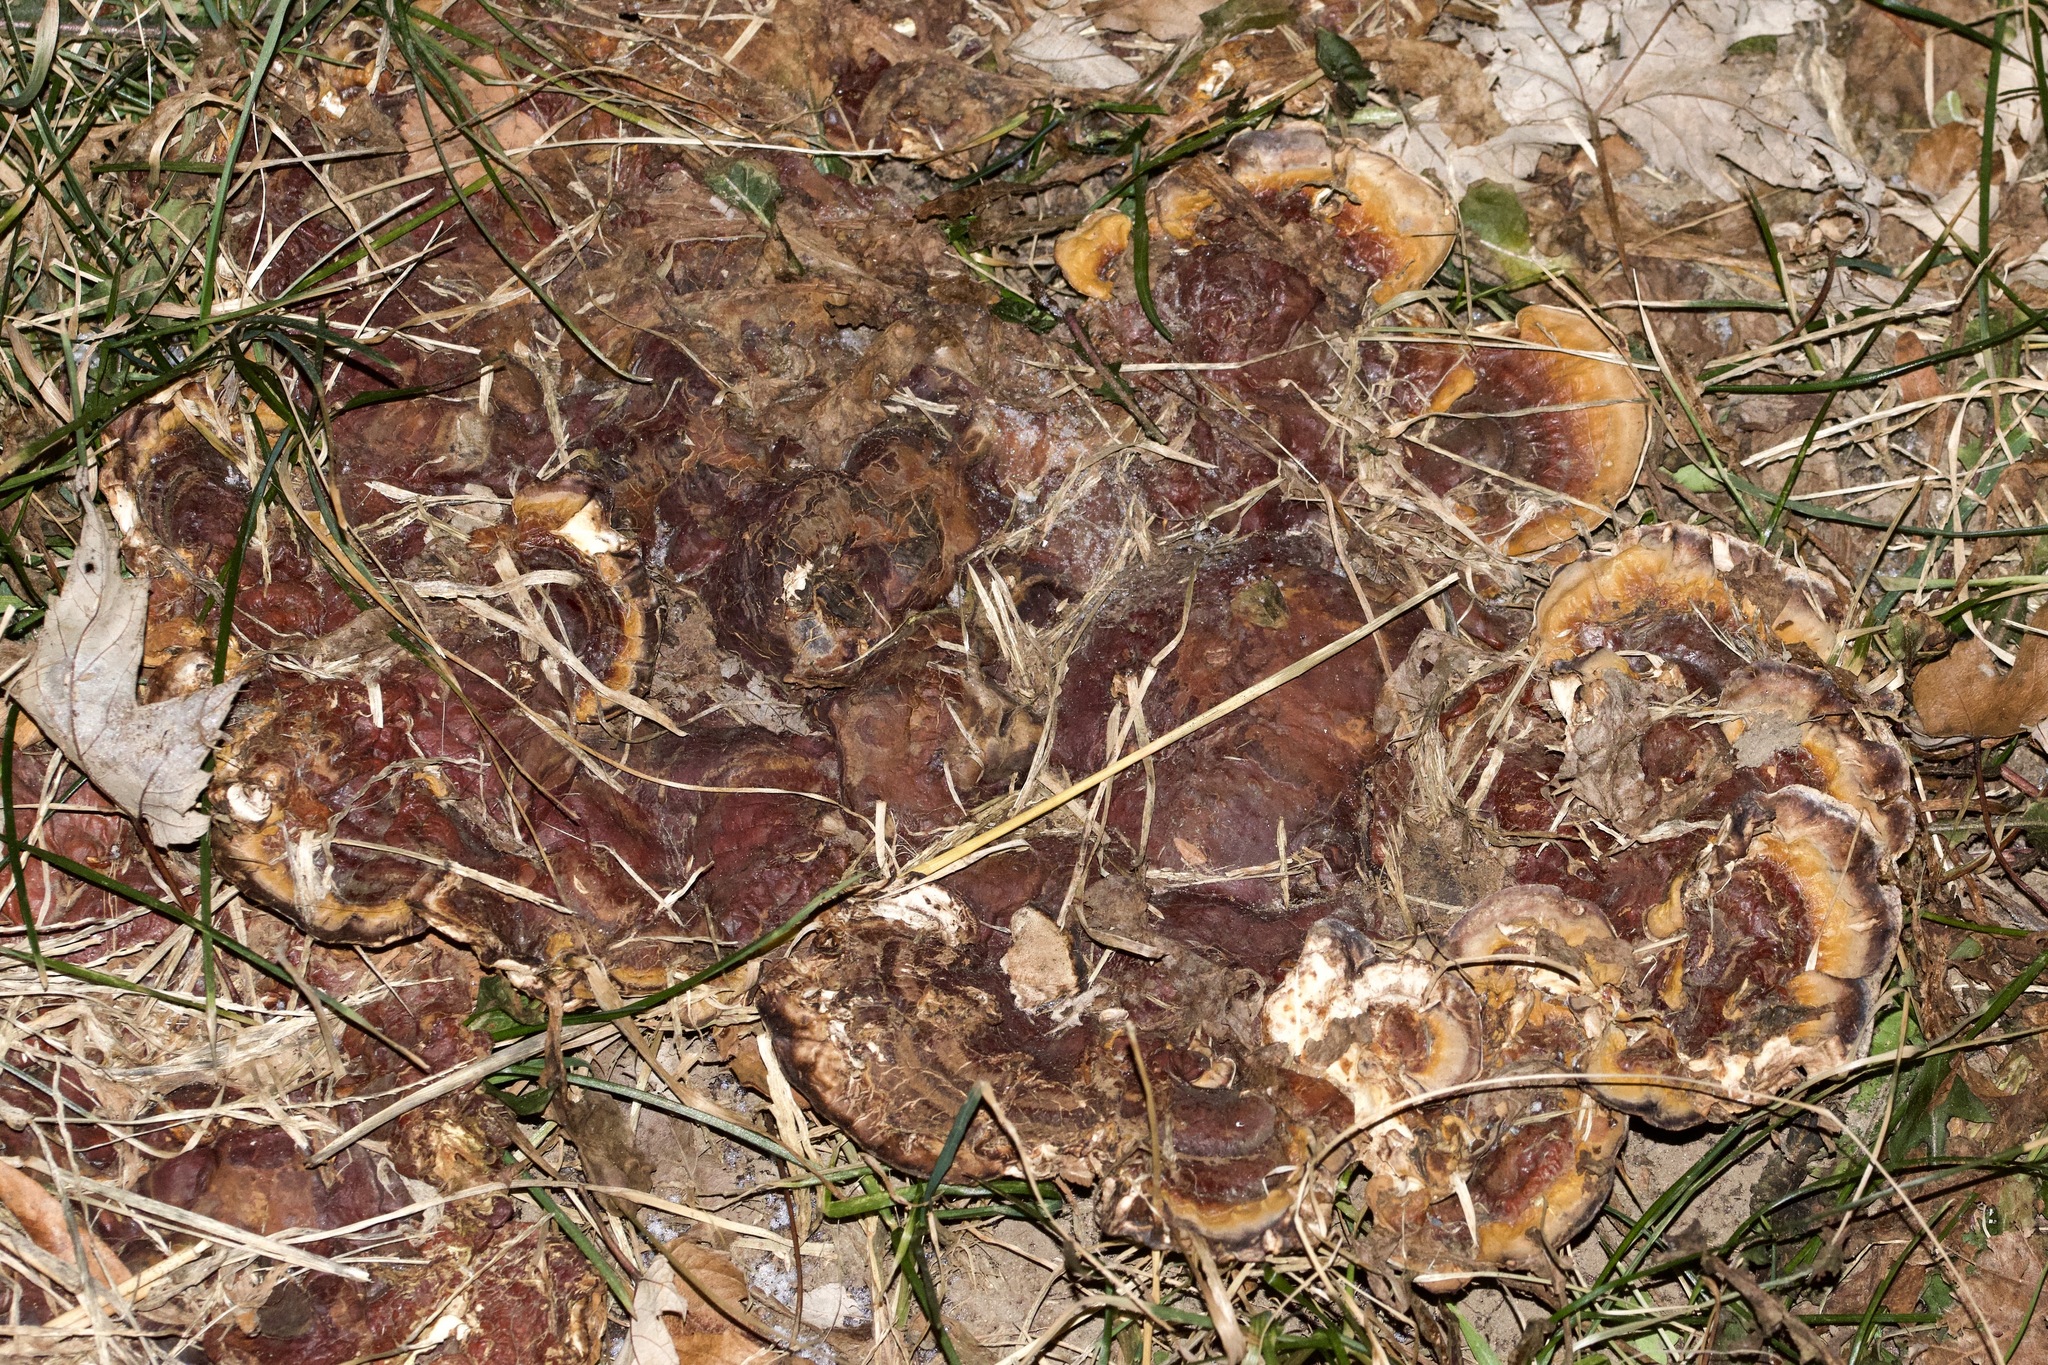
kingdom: Fungi
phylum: Basidiomycota
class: Agaricomycetes
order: Polyporales
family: Laetiporaceae
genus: Phaeolus
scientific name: Phaeolus schweinitzii
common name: Dyer's mazegill
